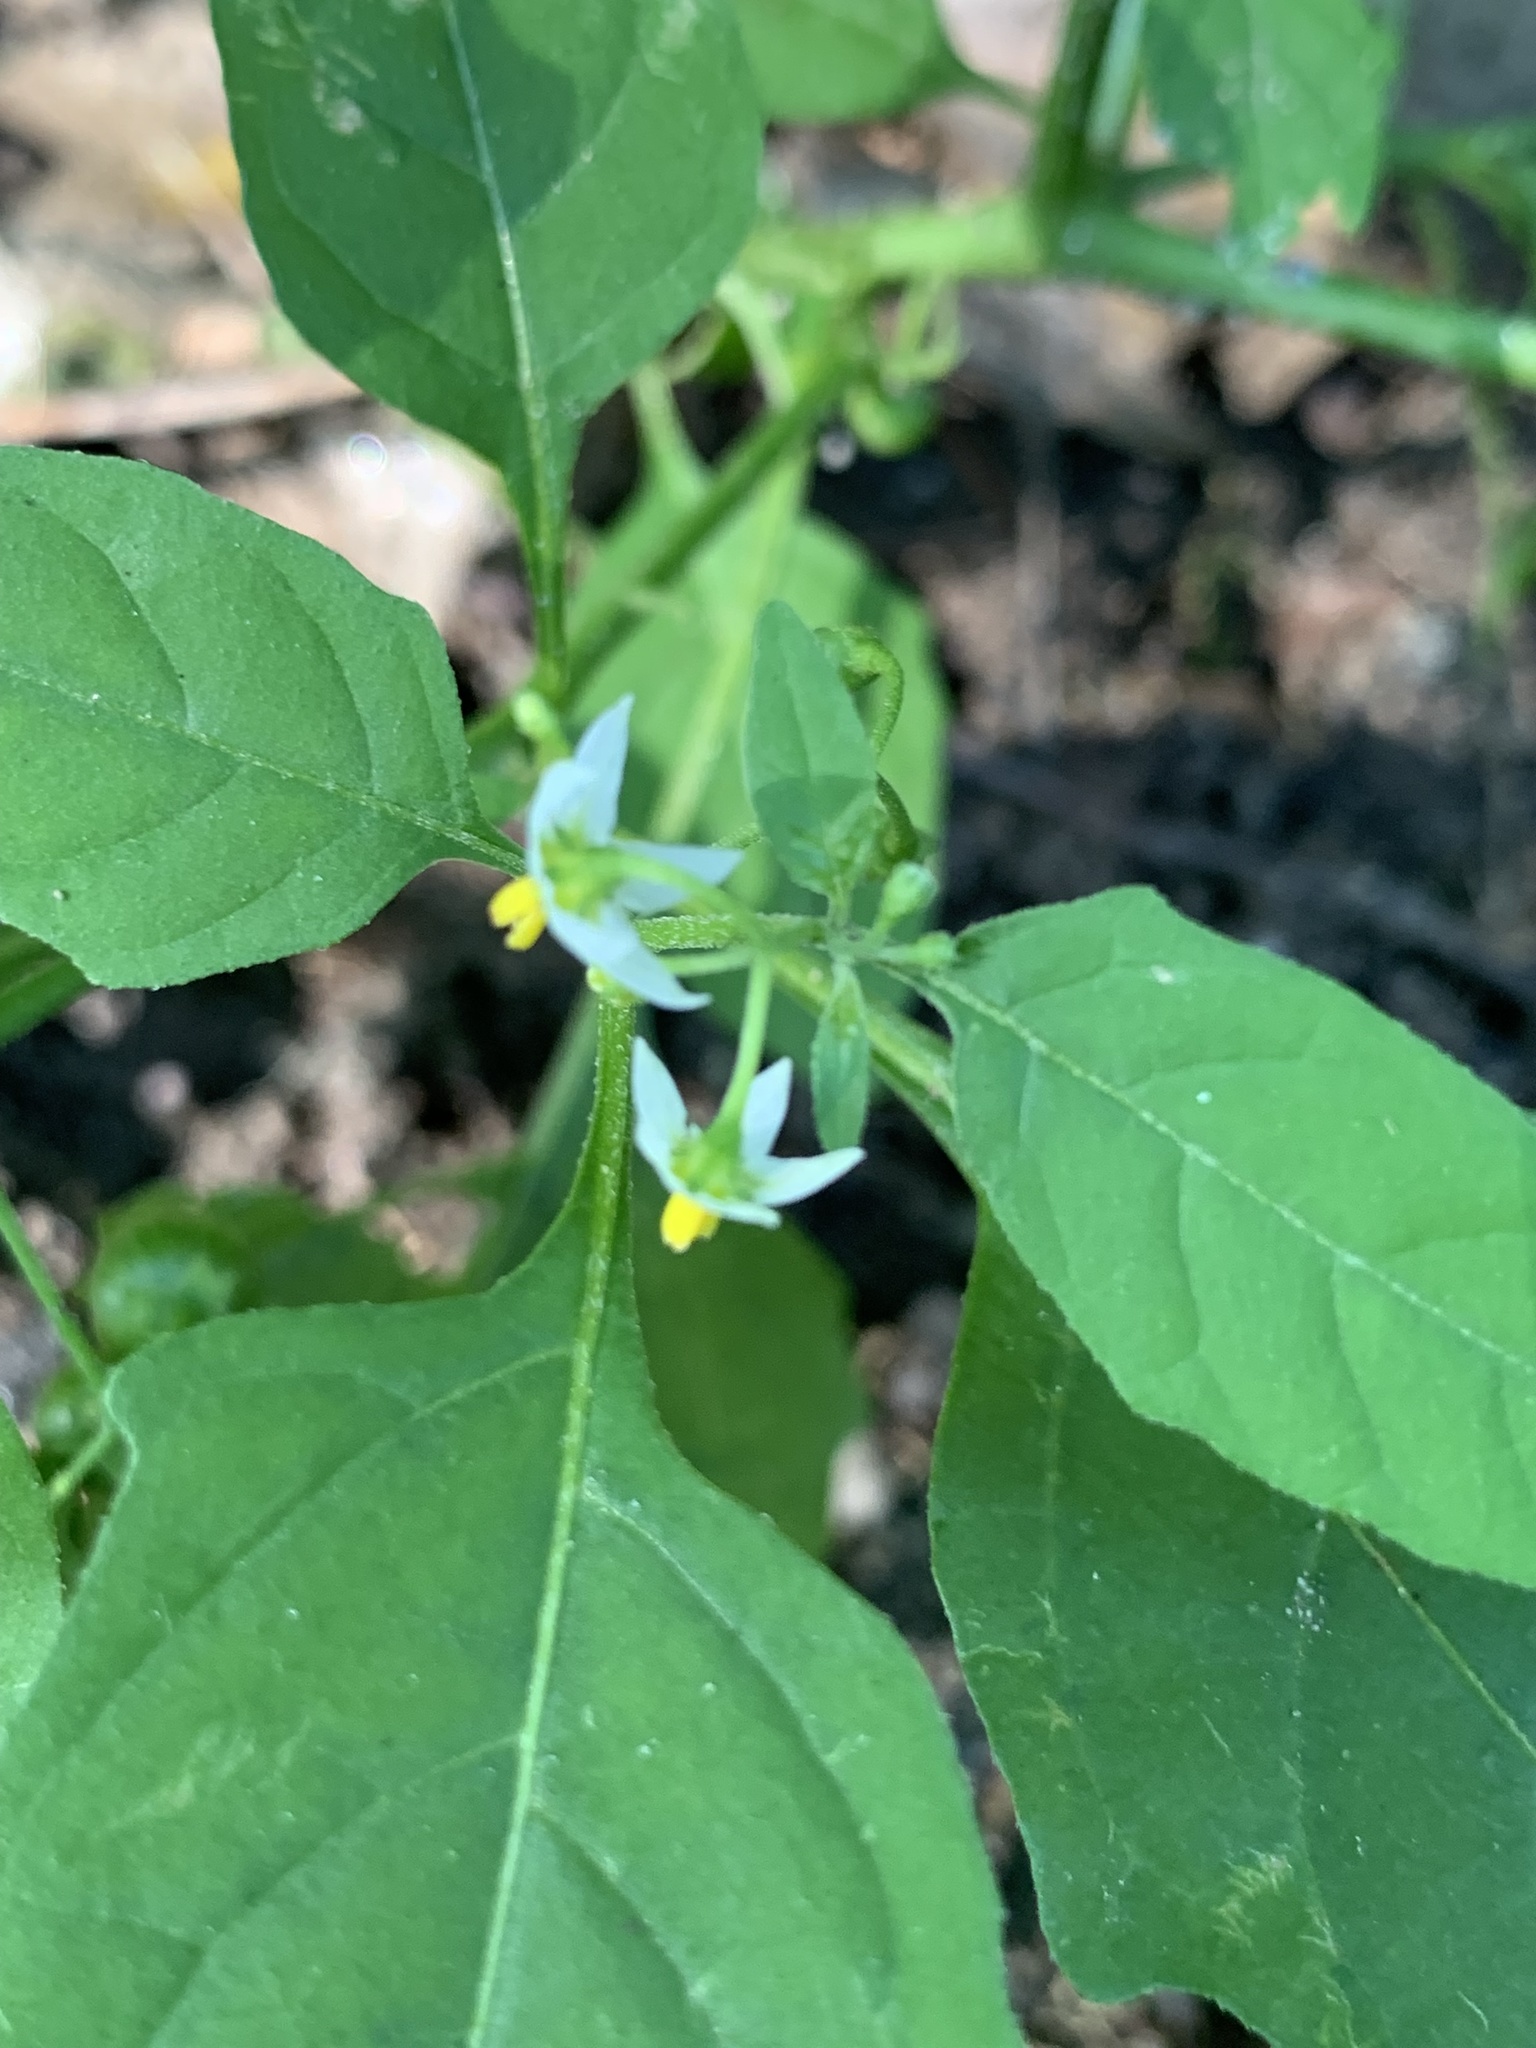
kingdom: Plantae
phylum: Tracheophyta
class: Magnoliopsida
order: Solanales
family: Solanaceae
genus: Solanum
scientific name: Solanum emulans
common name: Eastern black nightshade
